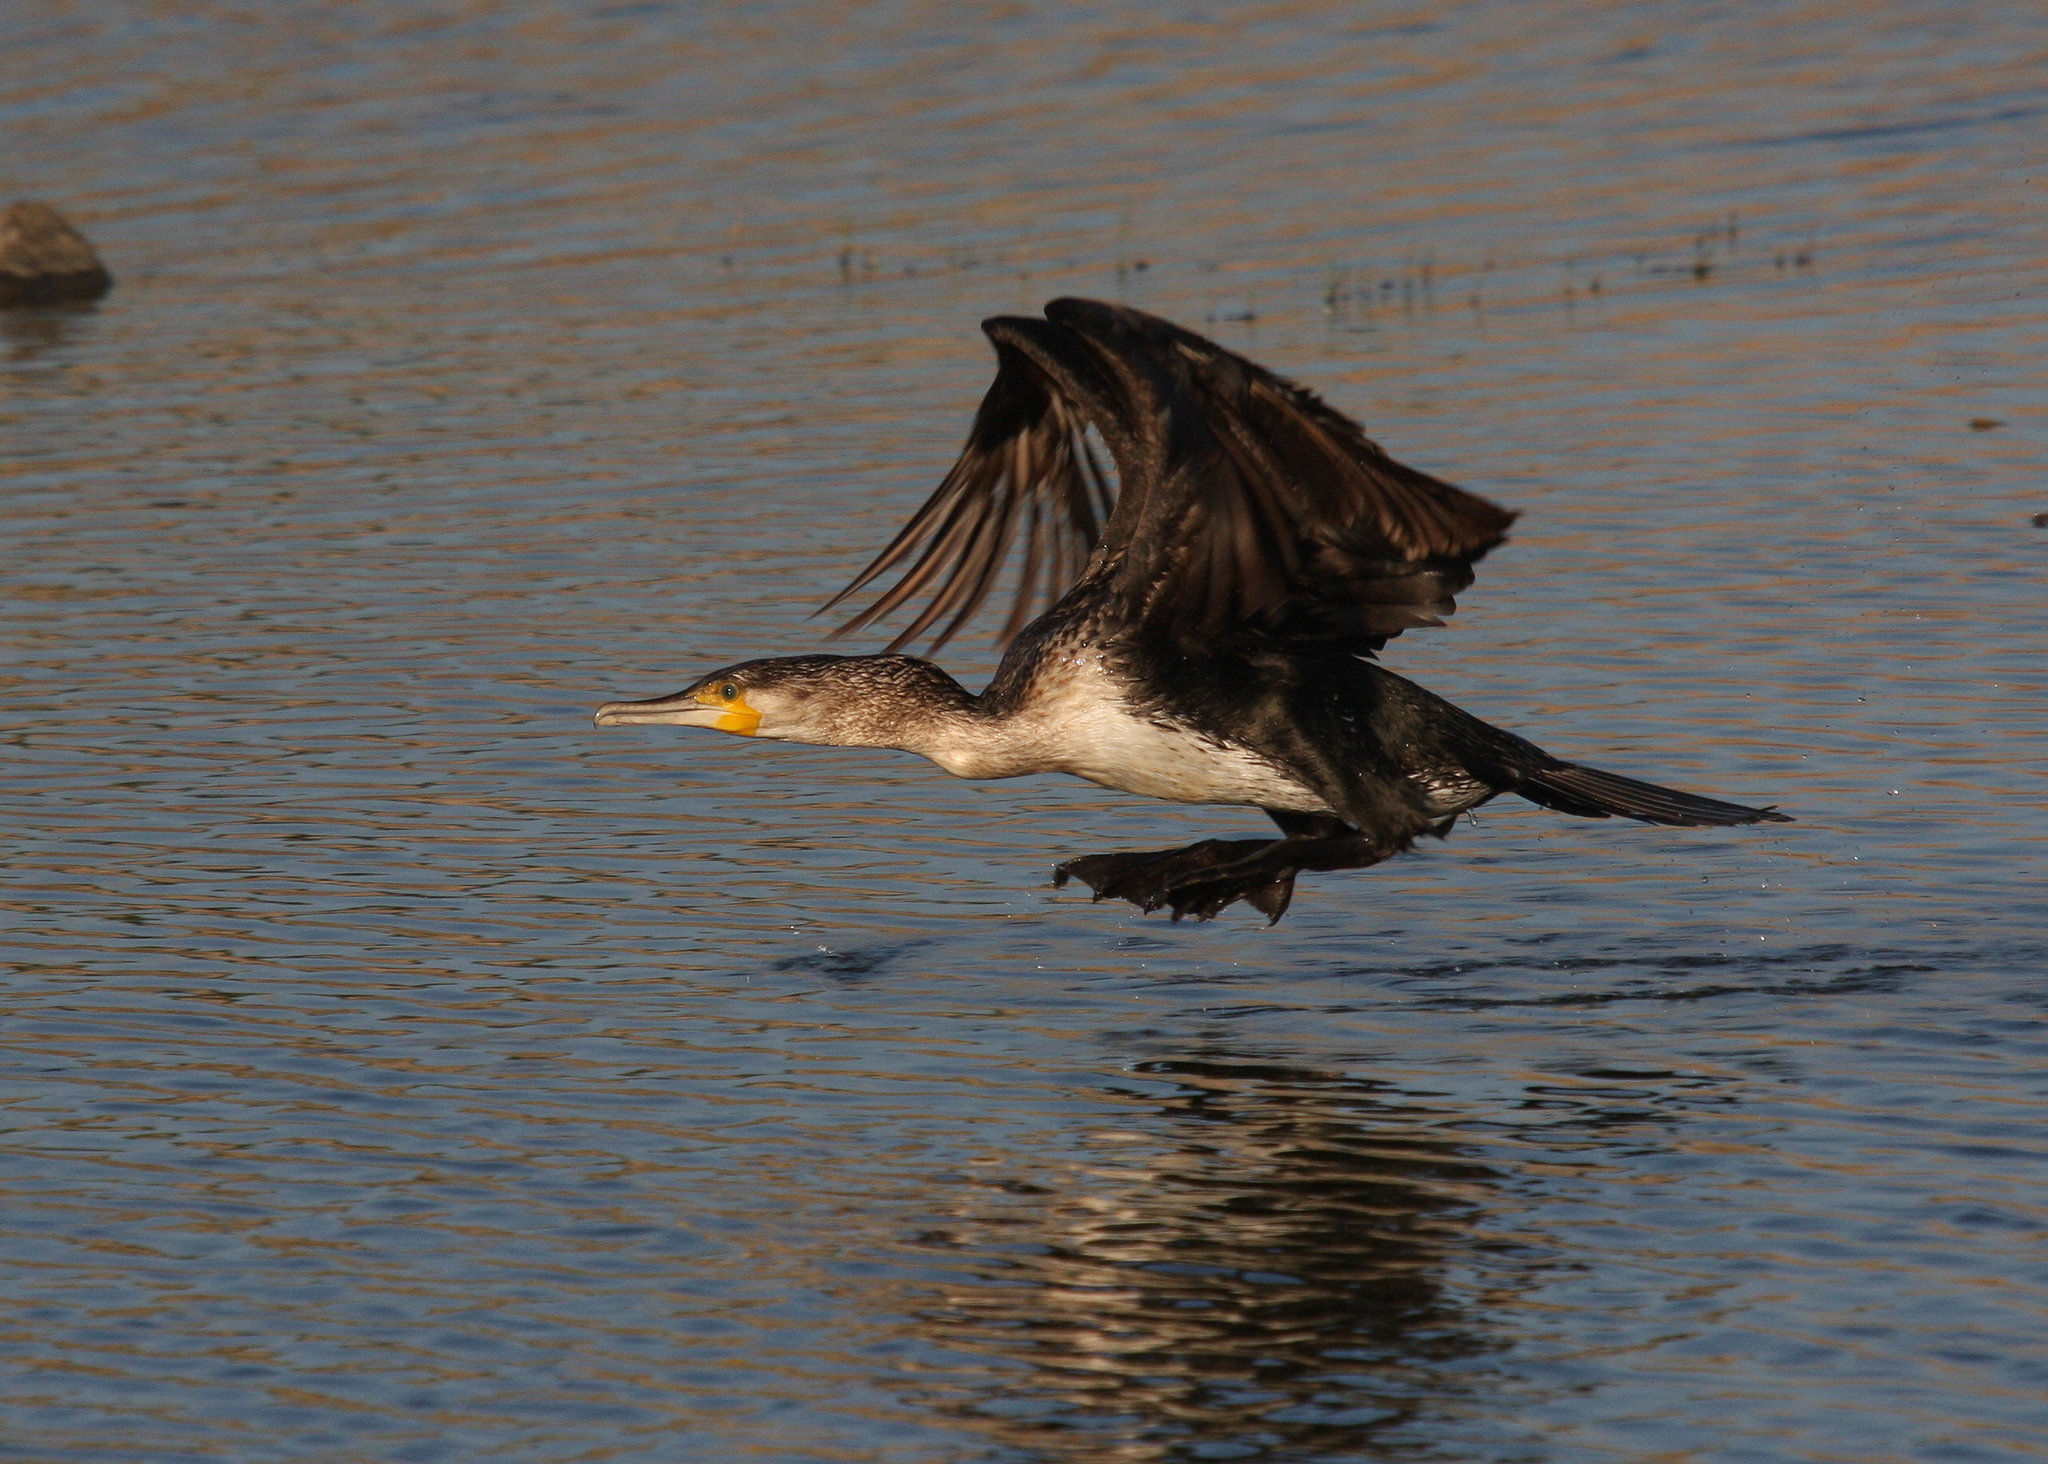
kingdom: Animalia
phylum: Chordata
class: Aves
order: Suliformes
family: Phalacrocoracidae
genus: Phalacrocorax
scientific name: Phalacrocorax carbo
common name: Great cormorant
